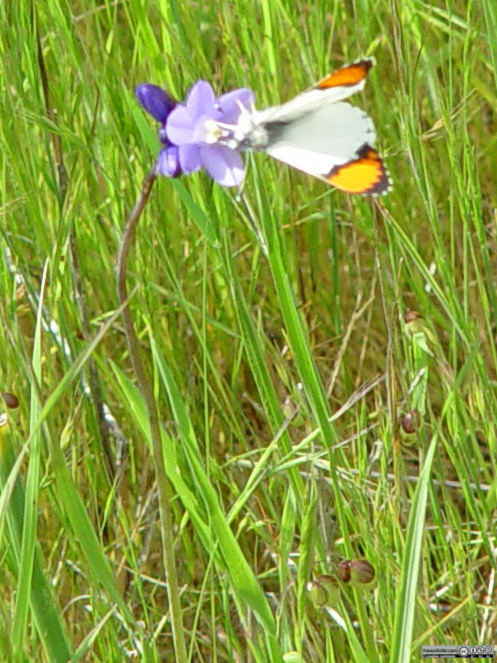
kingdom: Animalia
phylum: Arthropoda
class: Insecta
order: Lepidoptera
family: Pieridae
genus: Anthocharis
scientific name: Anthocharis sara
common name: Sara's orangetip
